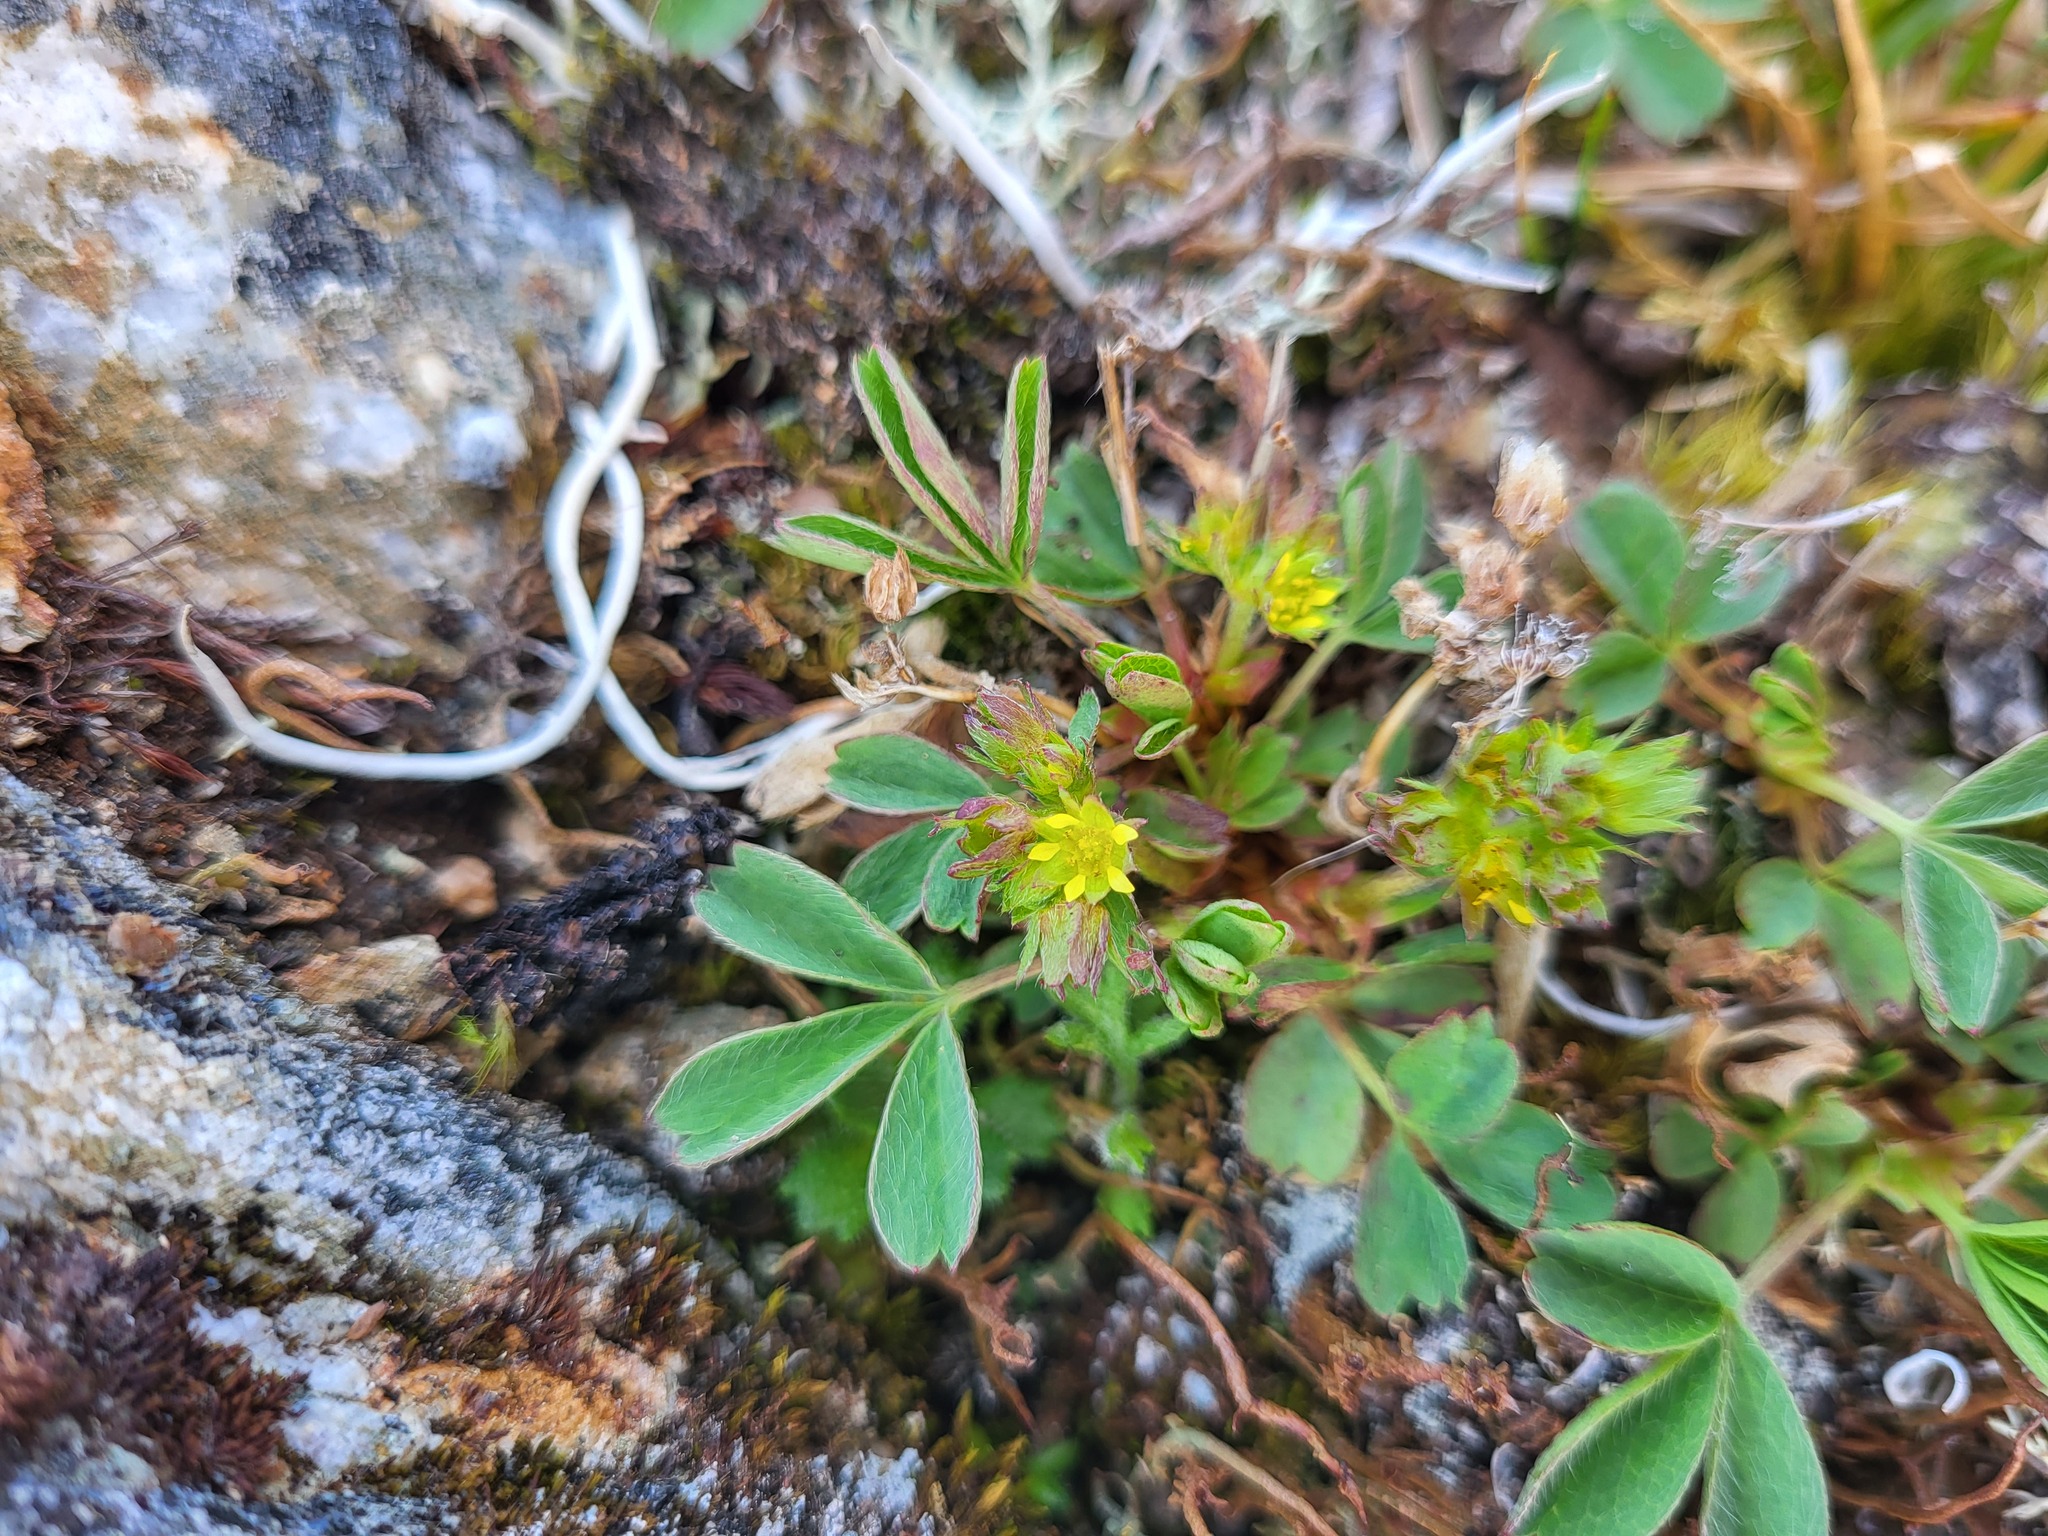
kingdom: Plantae
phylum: Tracheophyta
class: Magnoliopsida
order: Rosales
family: Rosaceae
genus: Sibbaldia
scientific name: Sibbaldia procumbens
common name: Creeping sibbaldia
